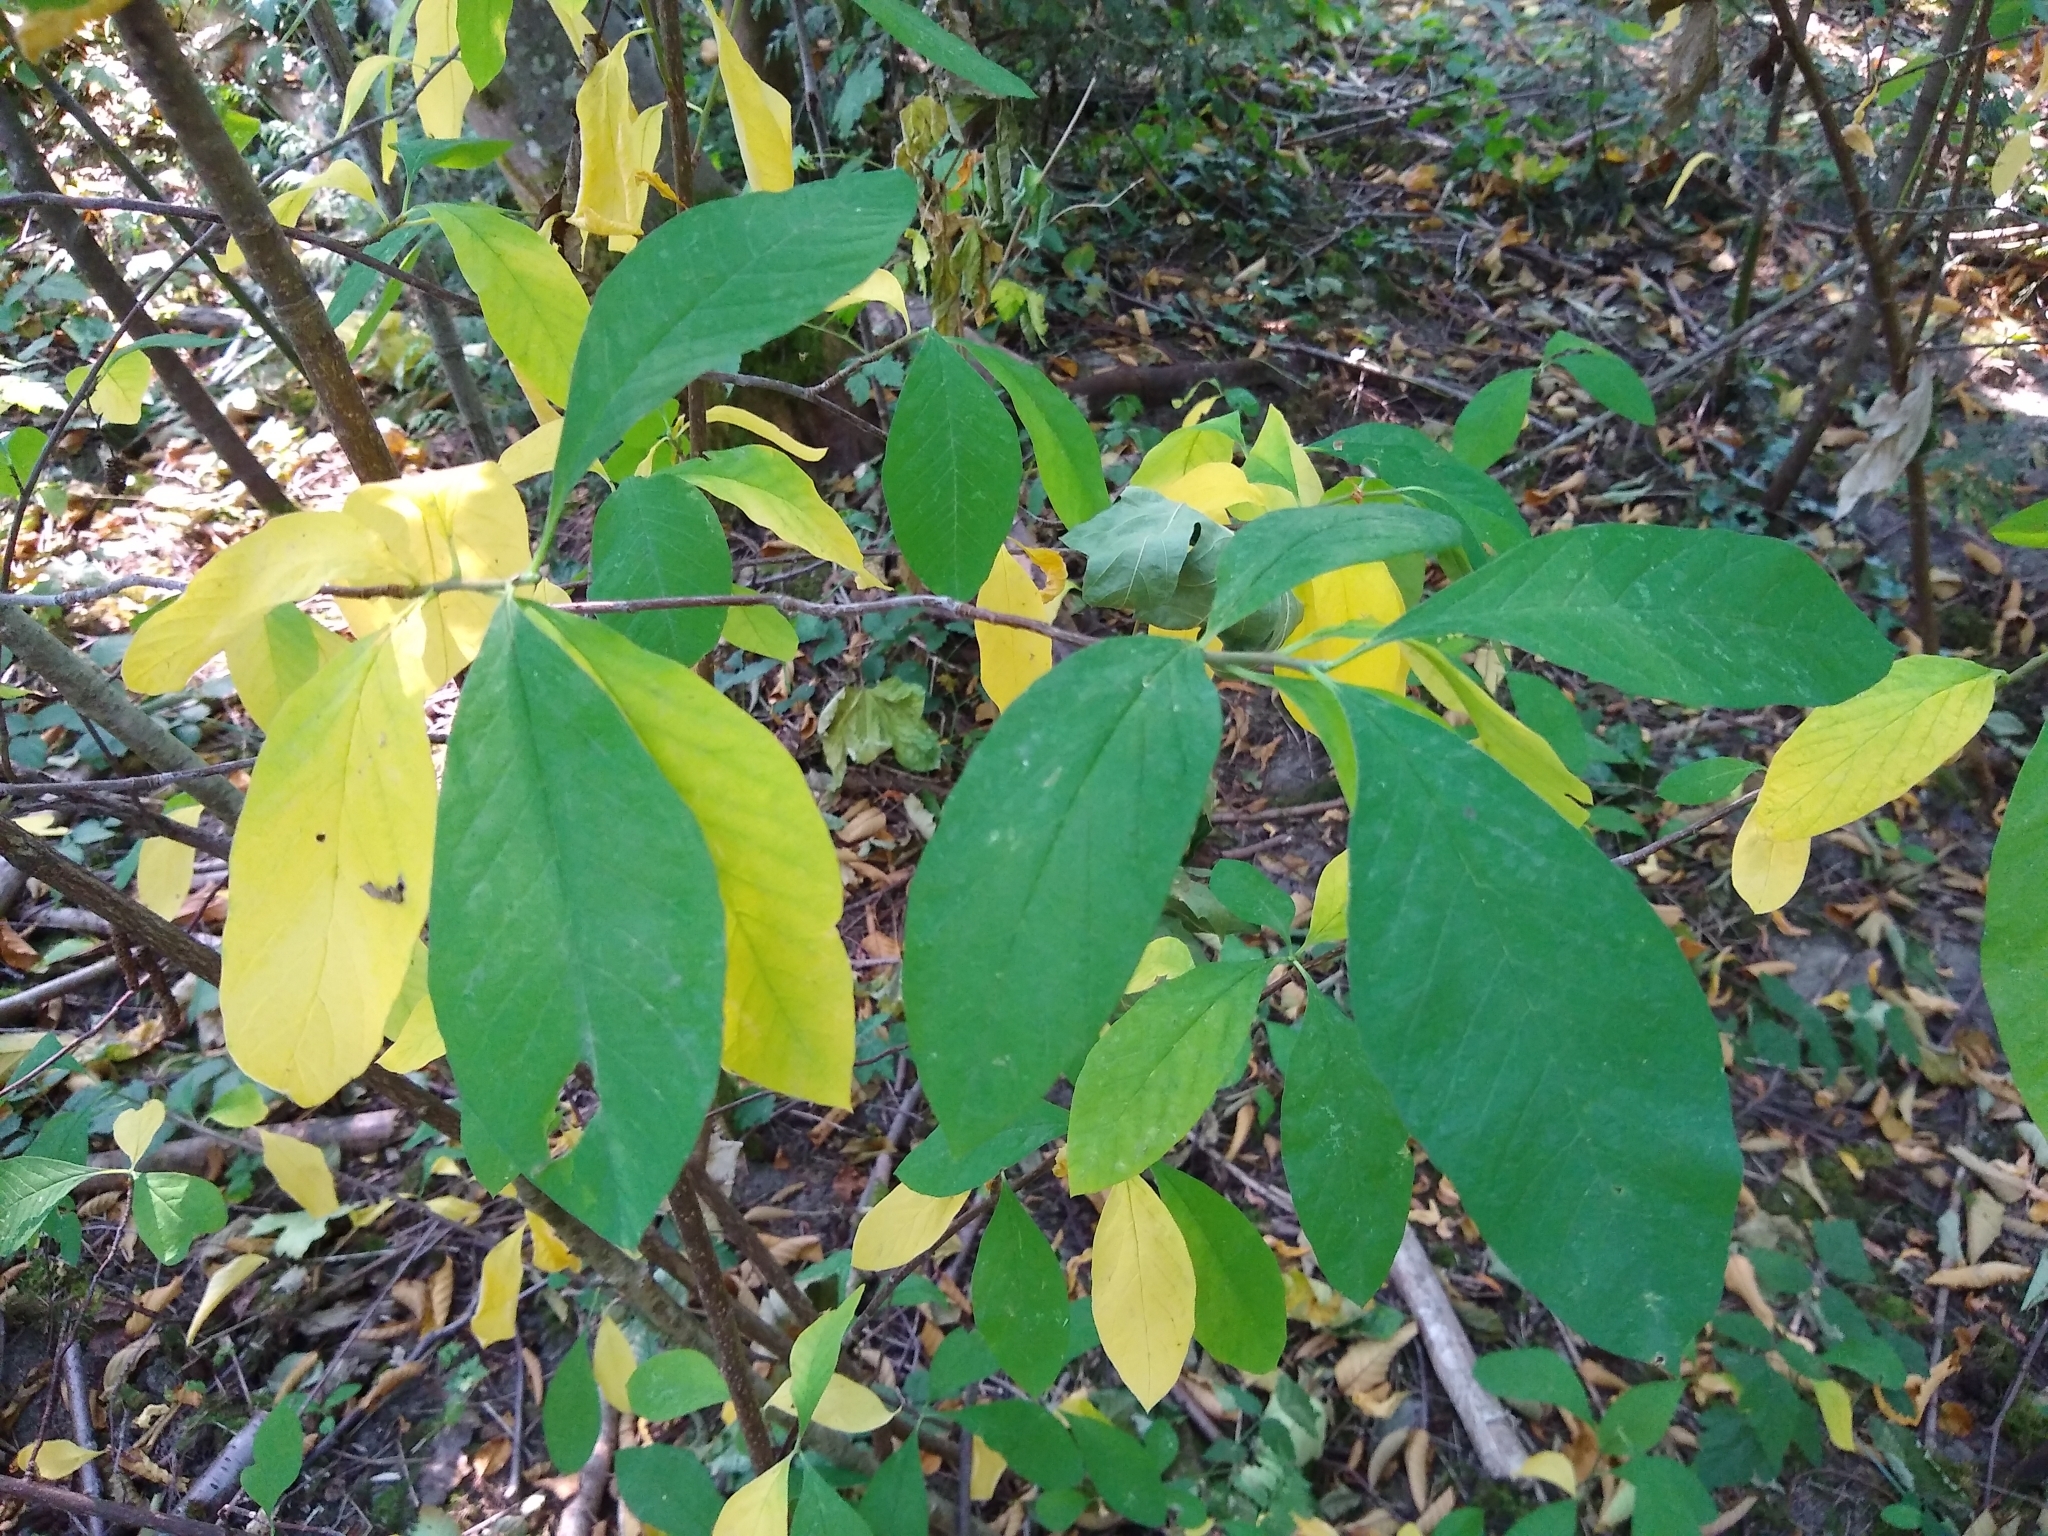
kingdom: Plantae
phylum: Tracheophyta
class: Magnoliopsida
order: Rosales
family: Rosaceae
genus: Oemleria
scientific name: Oemleria cerasiformis
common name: Osoberry
